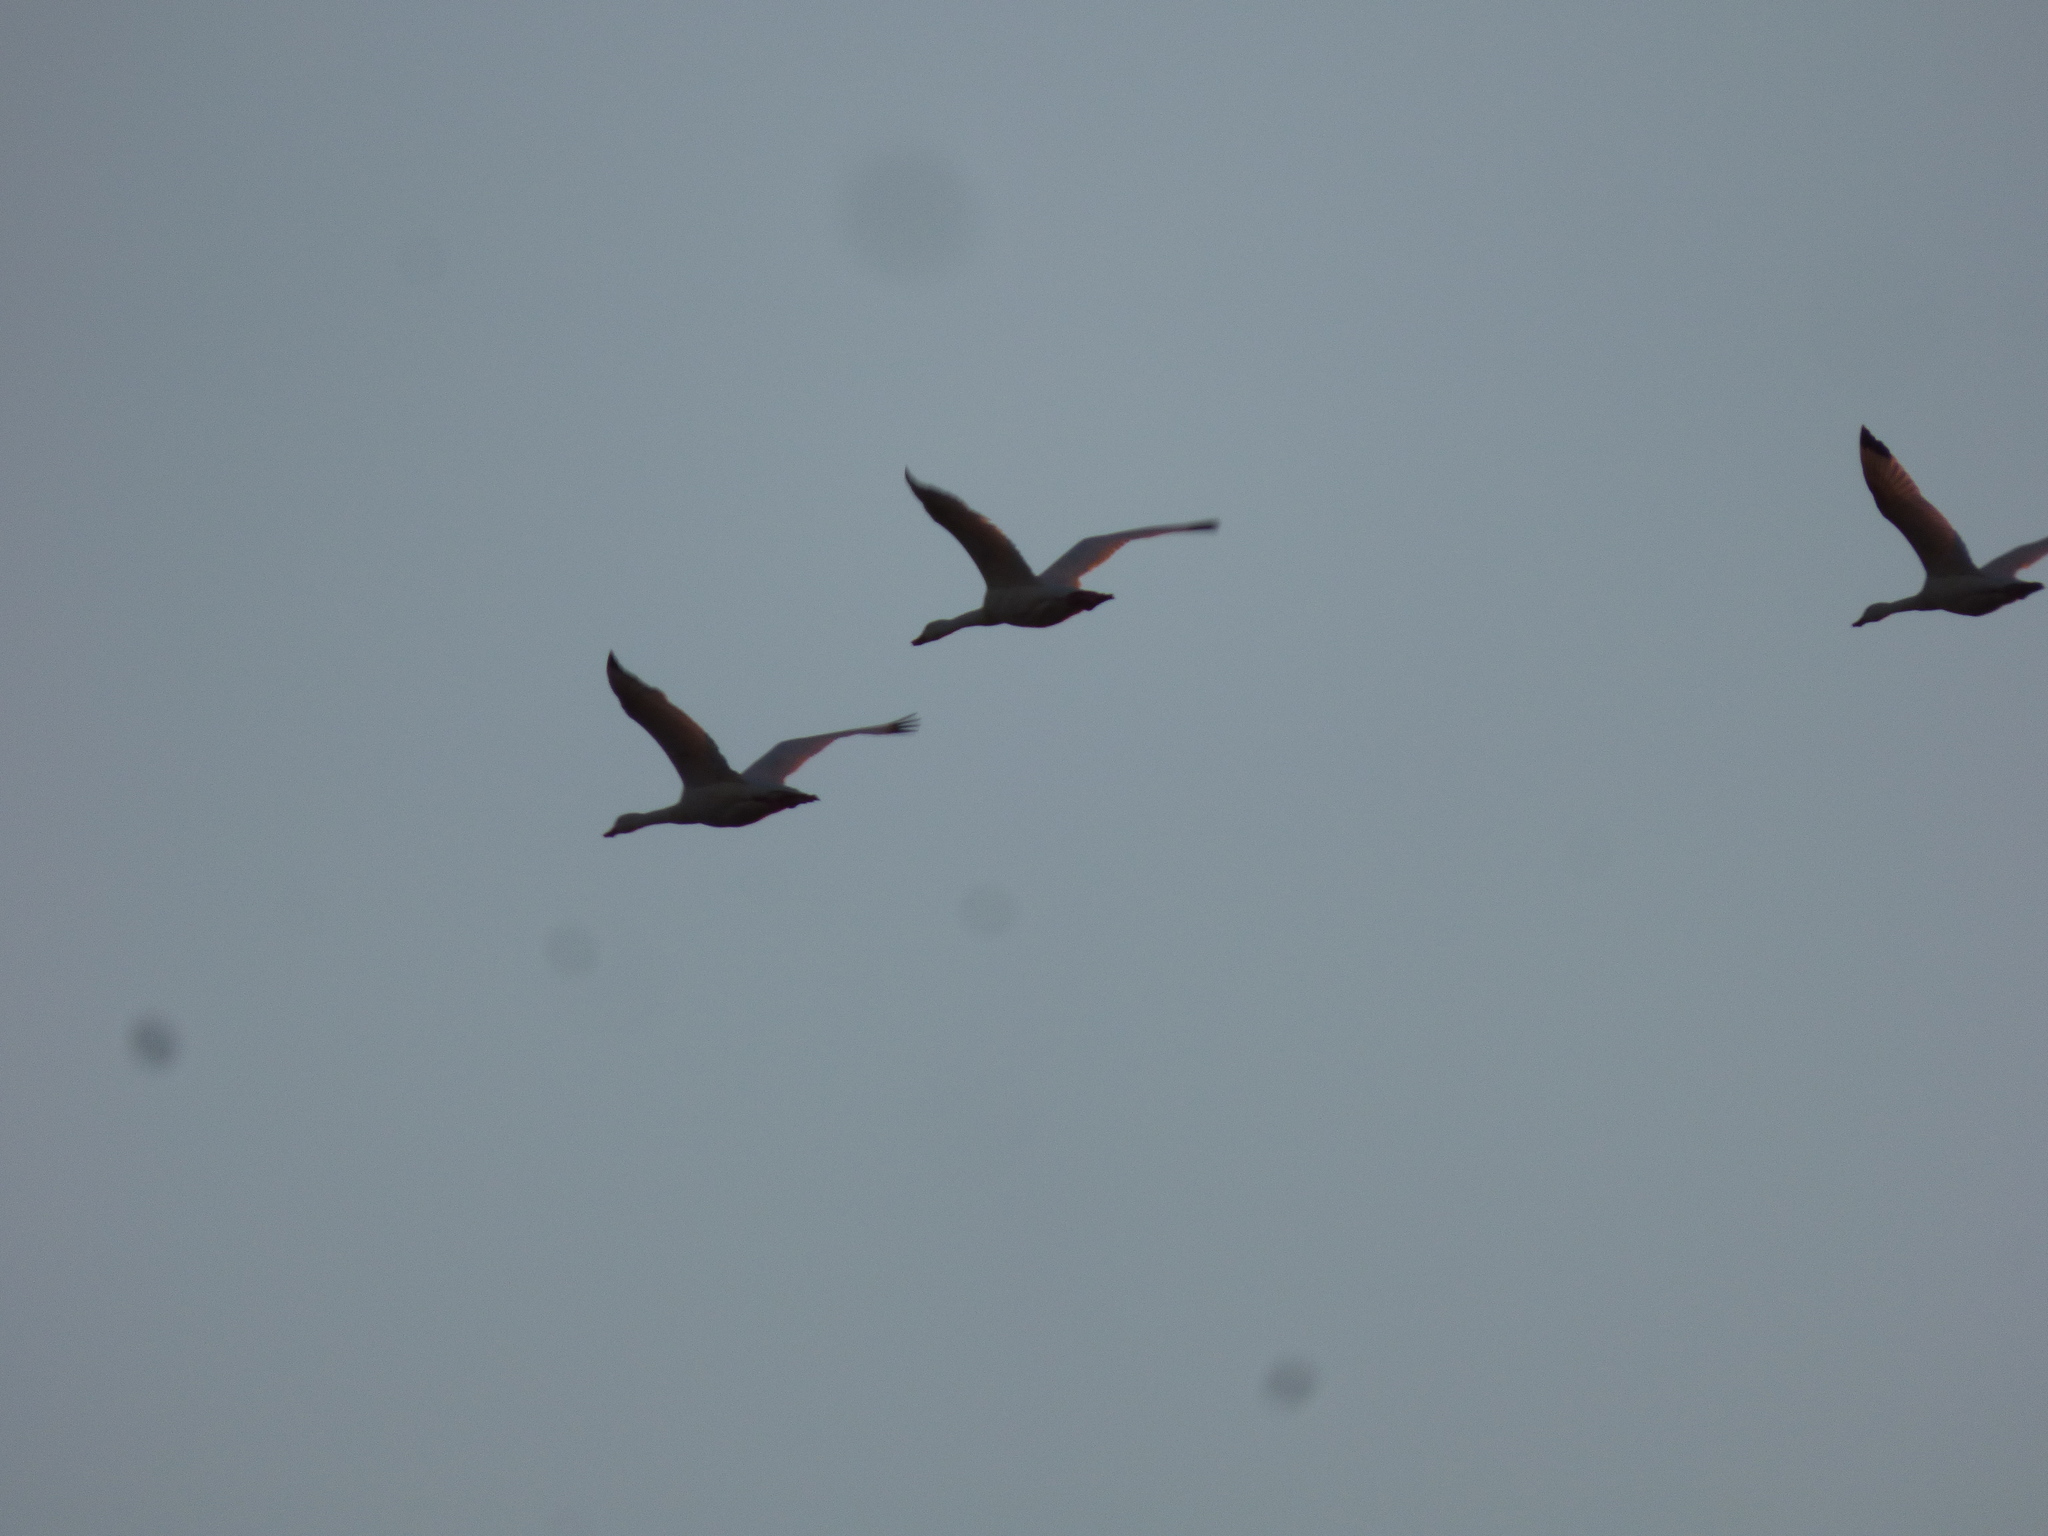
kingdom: Animalia
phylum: Chordata
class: Aves
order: Anseriformes
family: Anatidae
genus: Coscoroba
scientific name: Coscoroba coscoroba
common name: Coscoroba swan
